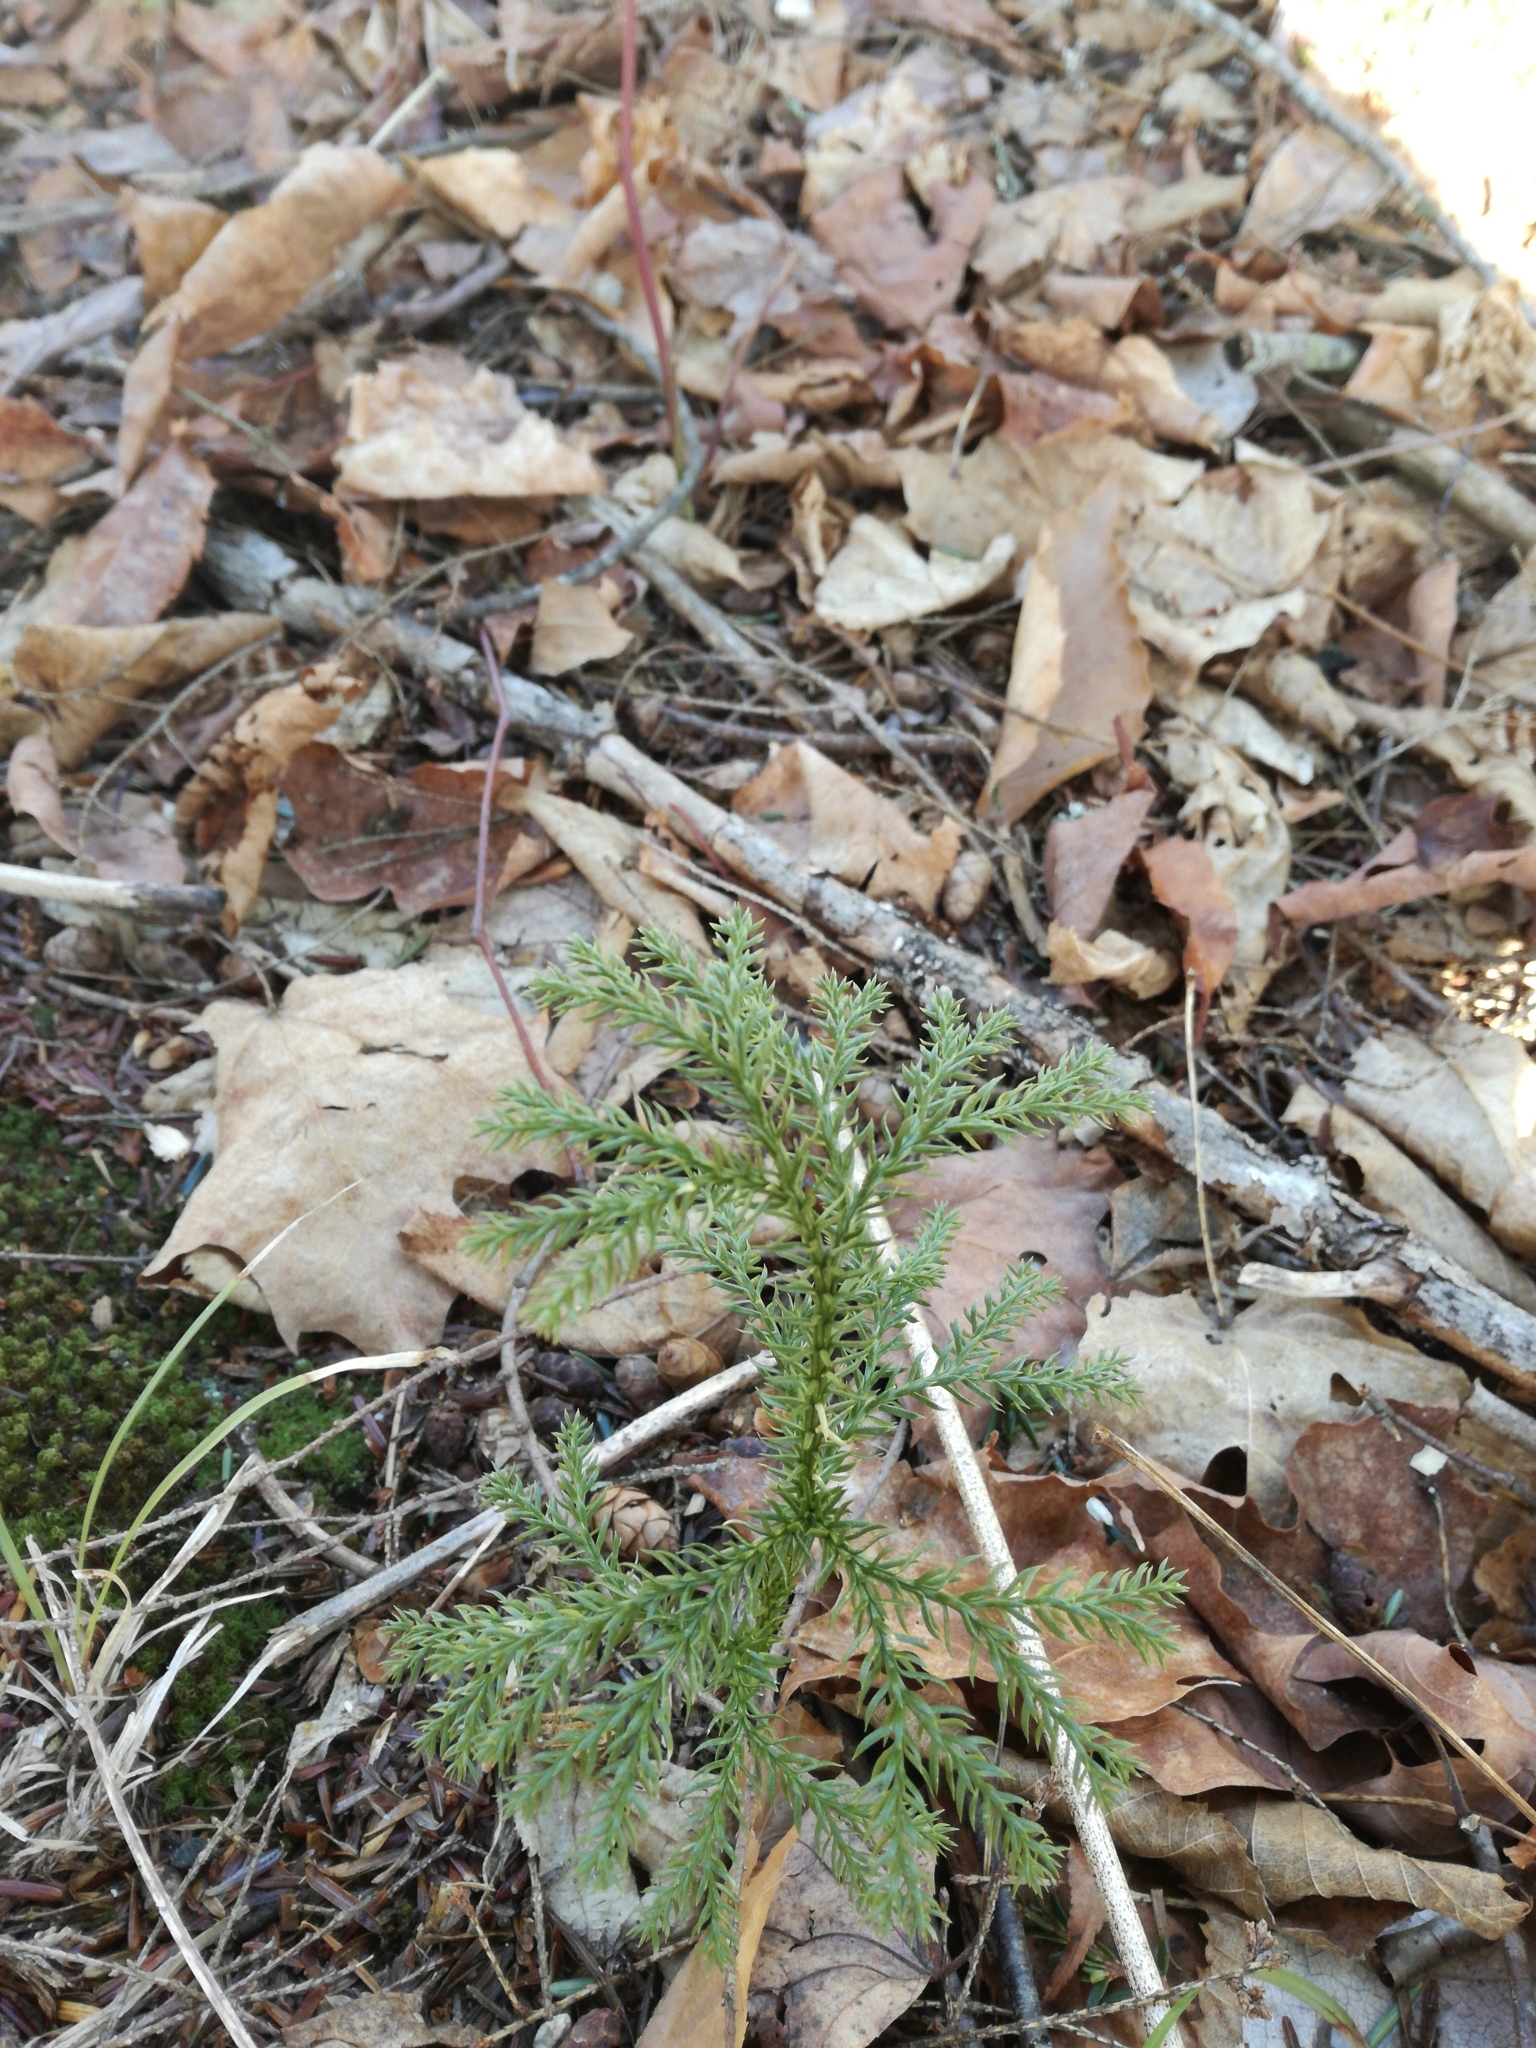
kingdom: Plantae
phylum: Tracheophyta
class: Lycopodiopsida
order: Lycopodiales
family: Lycopodiaceae
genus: Dendrolycopodium
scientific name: Dendrolycopodium dendroideum
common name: Northern tree-clubmoss
